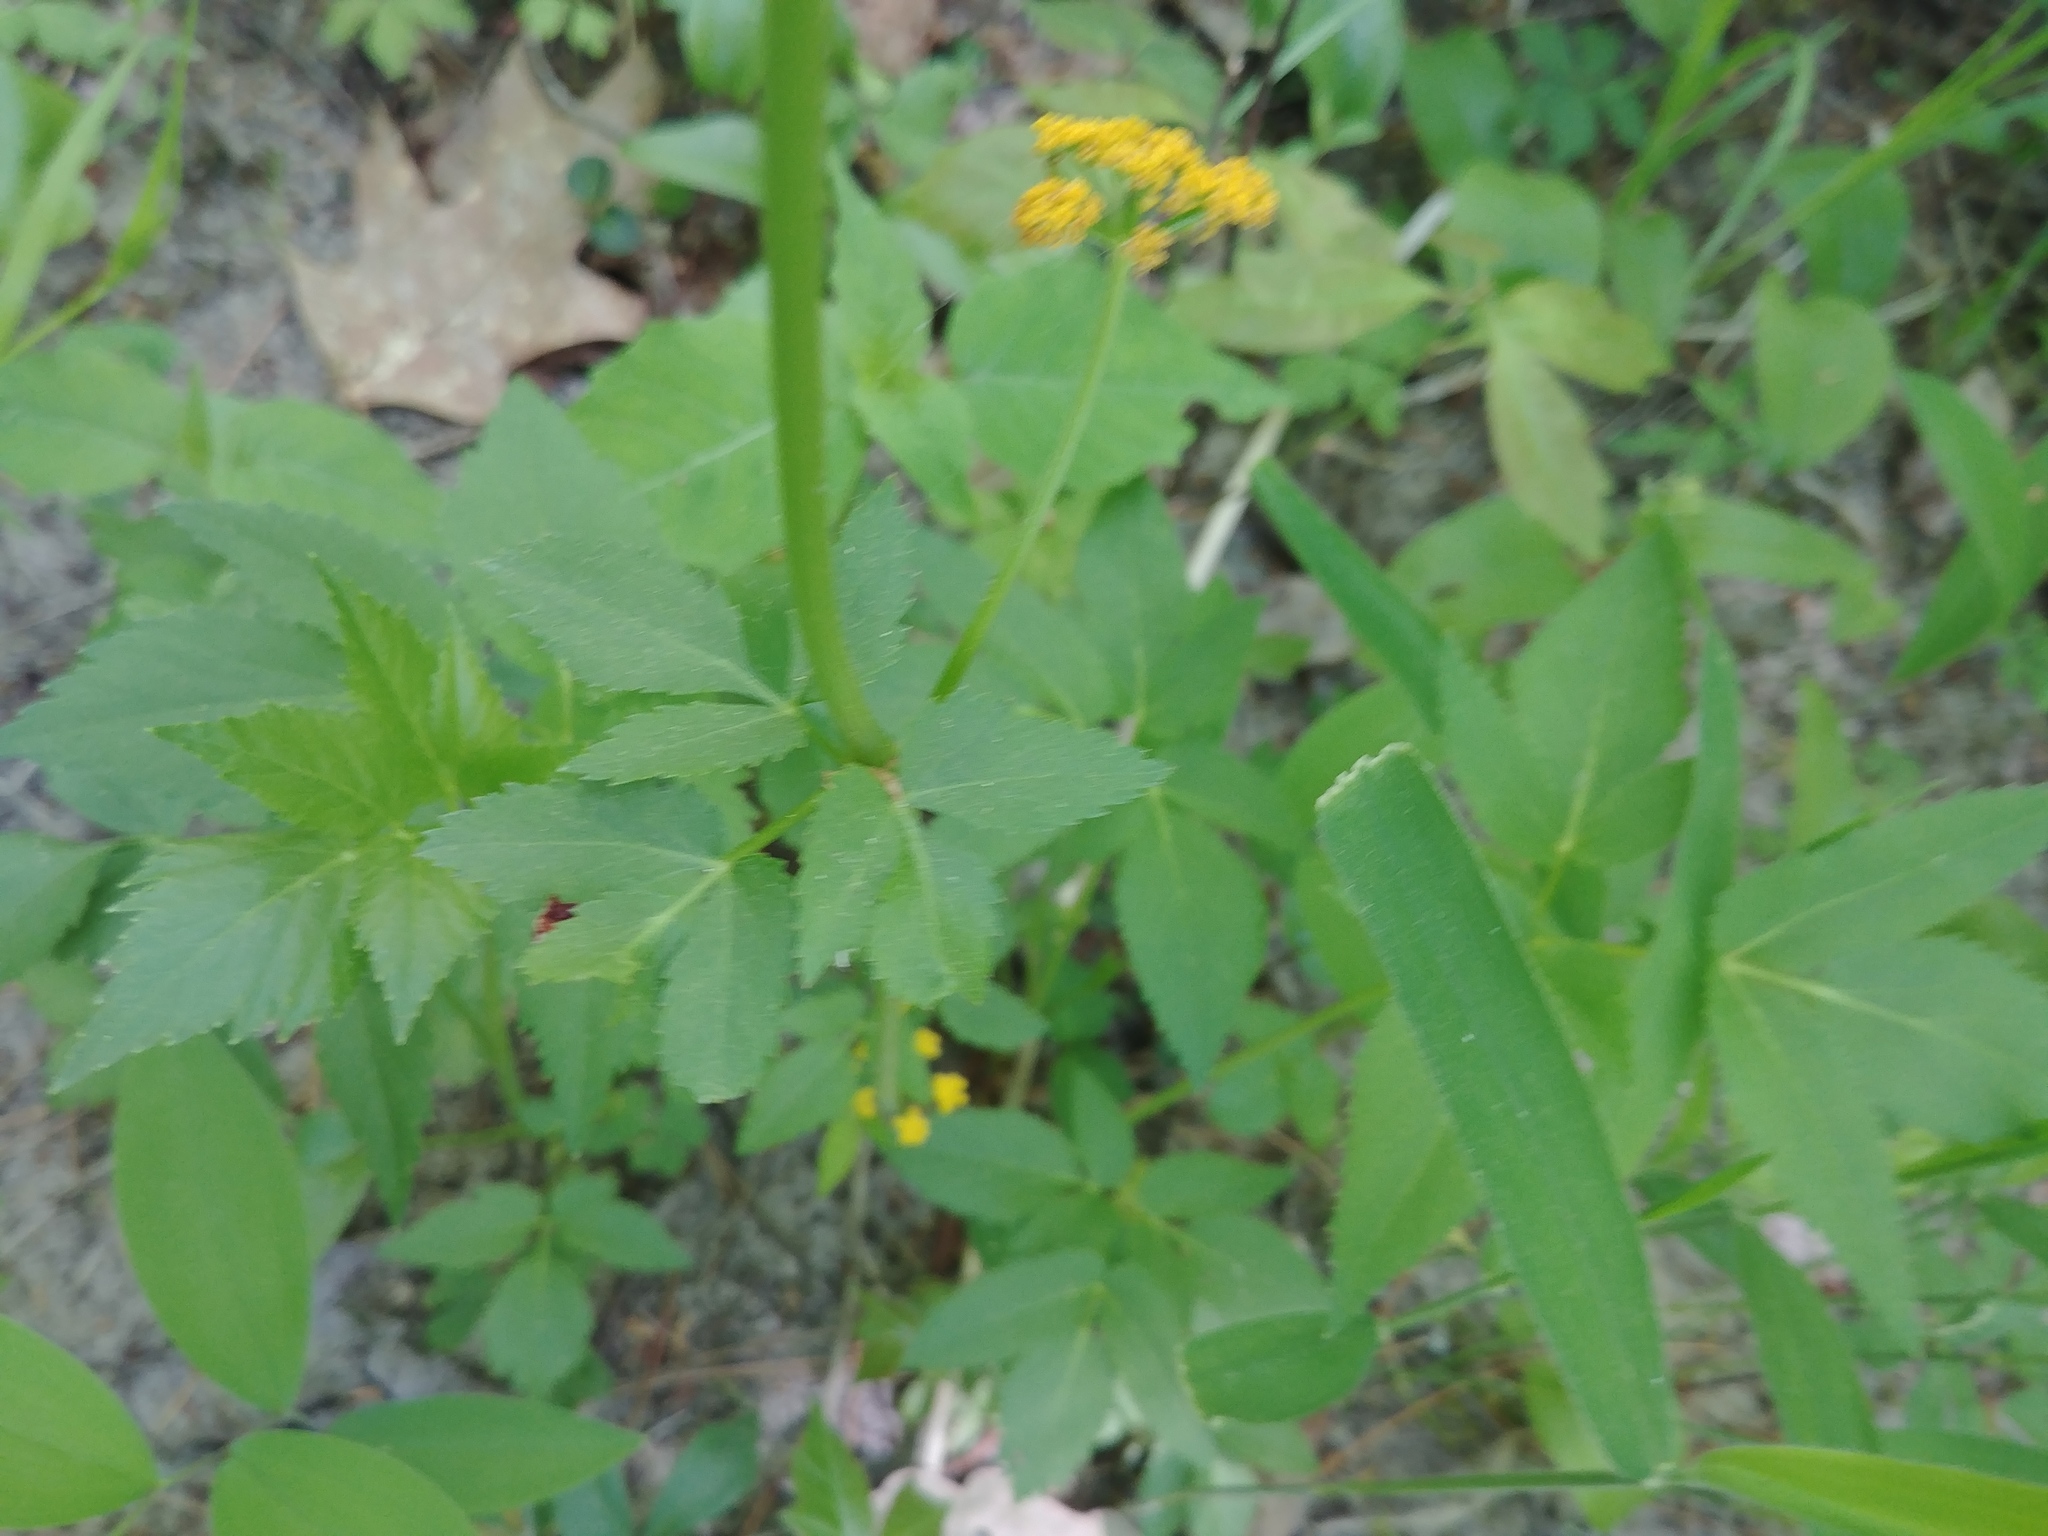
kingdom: Plantae
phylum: Tracheophyta
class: Magnoliopsida
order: Apiales
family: Apiaceae
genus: Zizia
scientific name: Zizia aurea
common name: Golden alexanders
